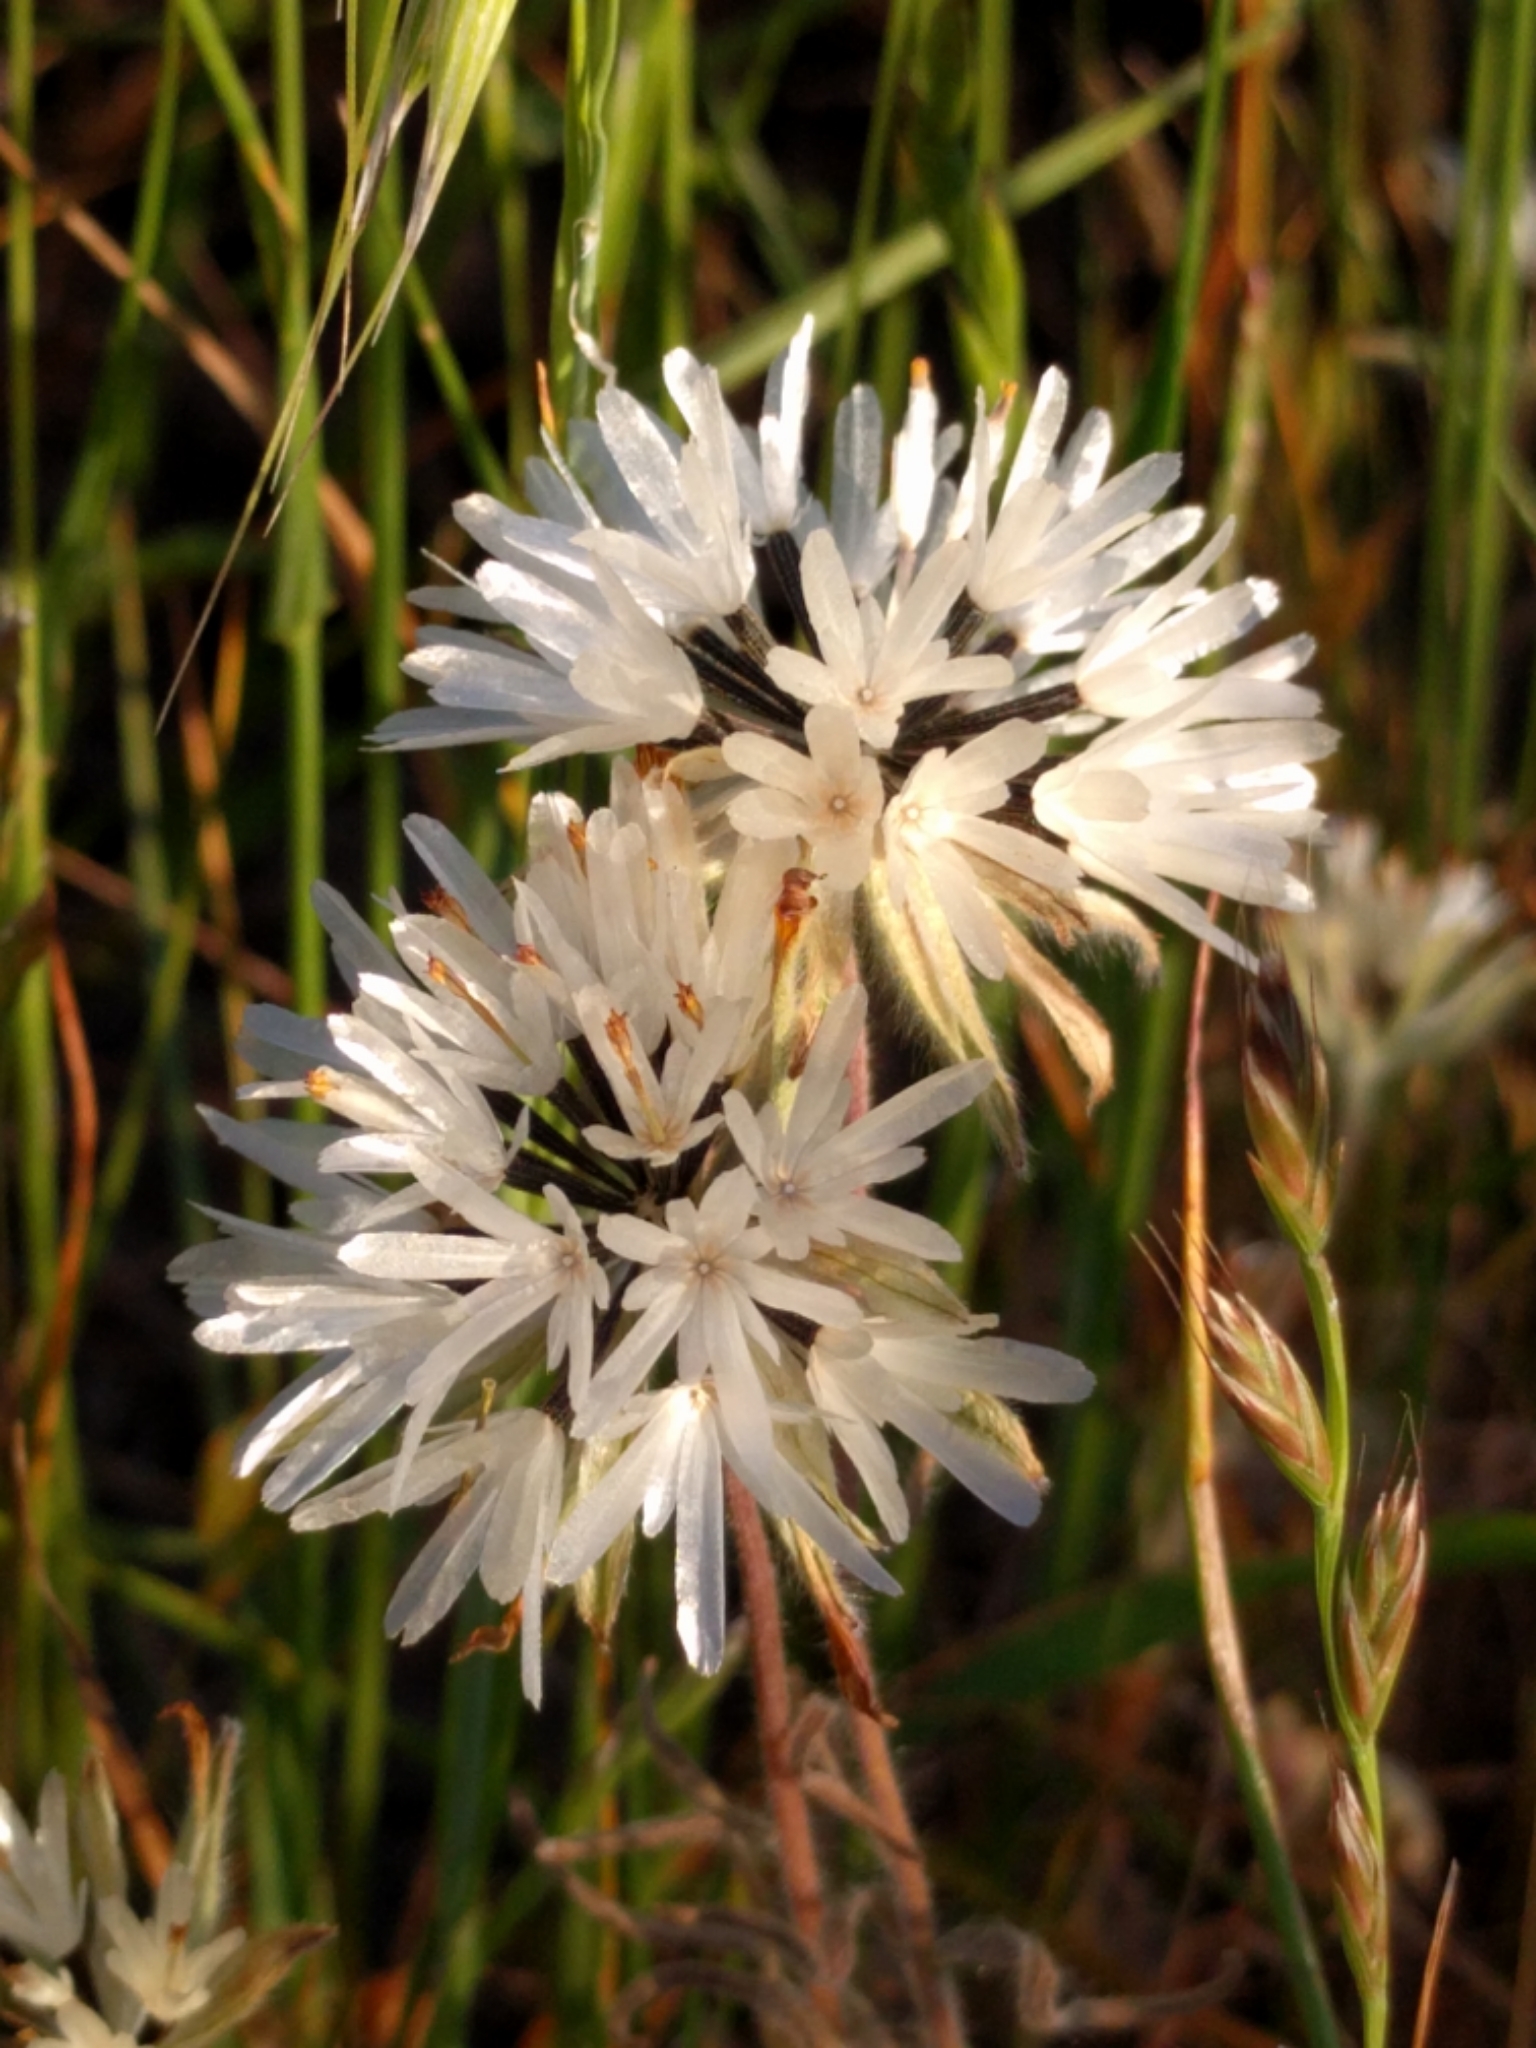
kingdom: Plantae
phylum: Tracheophyta
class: Magnoliopsida
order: Asterales
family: Asteraceae
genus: Achyrachaena
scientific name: Achyrachaena mollis
